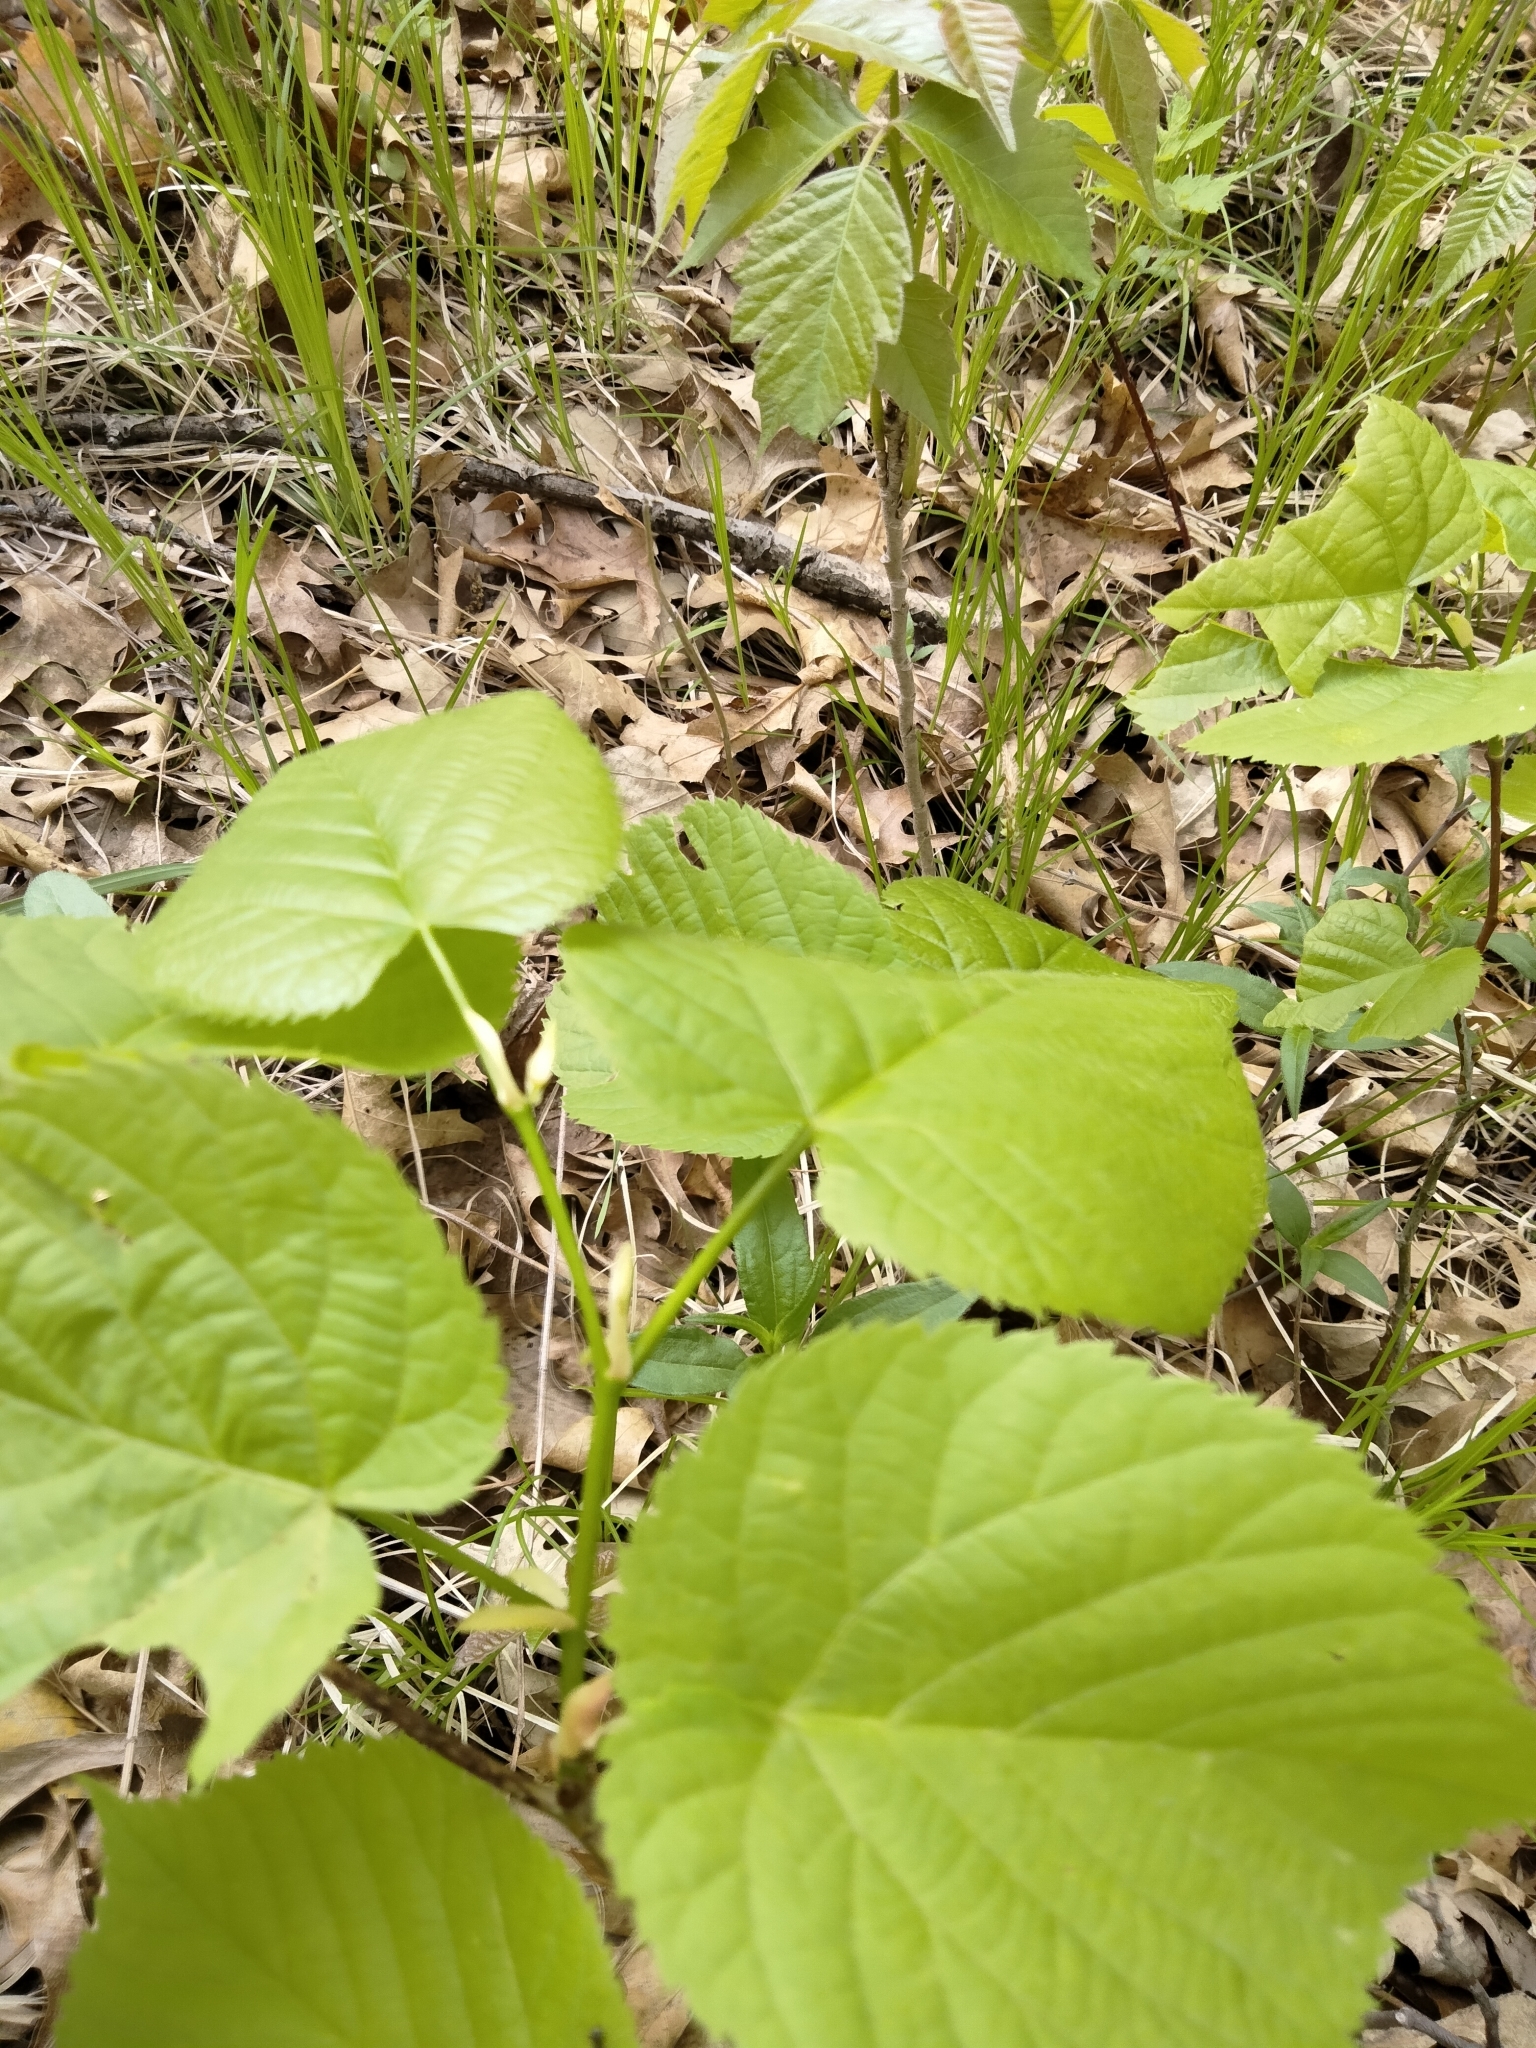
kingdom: Plantae
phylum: Tracheophyta
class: Magnoliopsida
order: Malvales
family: Malvaceae
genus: Tilia
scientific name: Tilia americana
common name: Basswood
